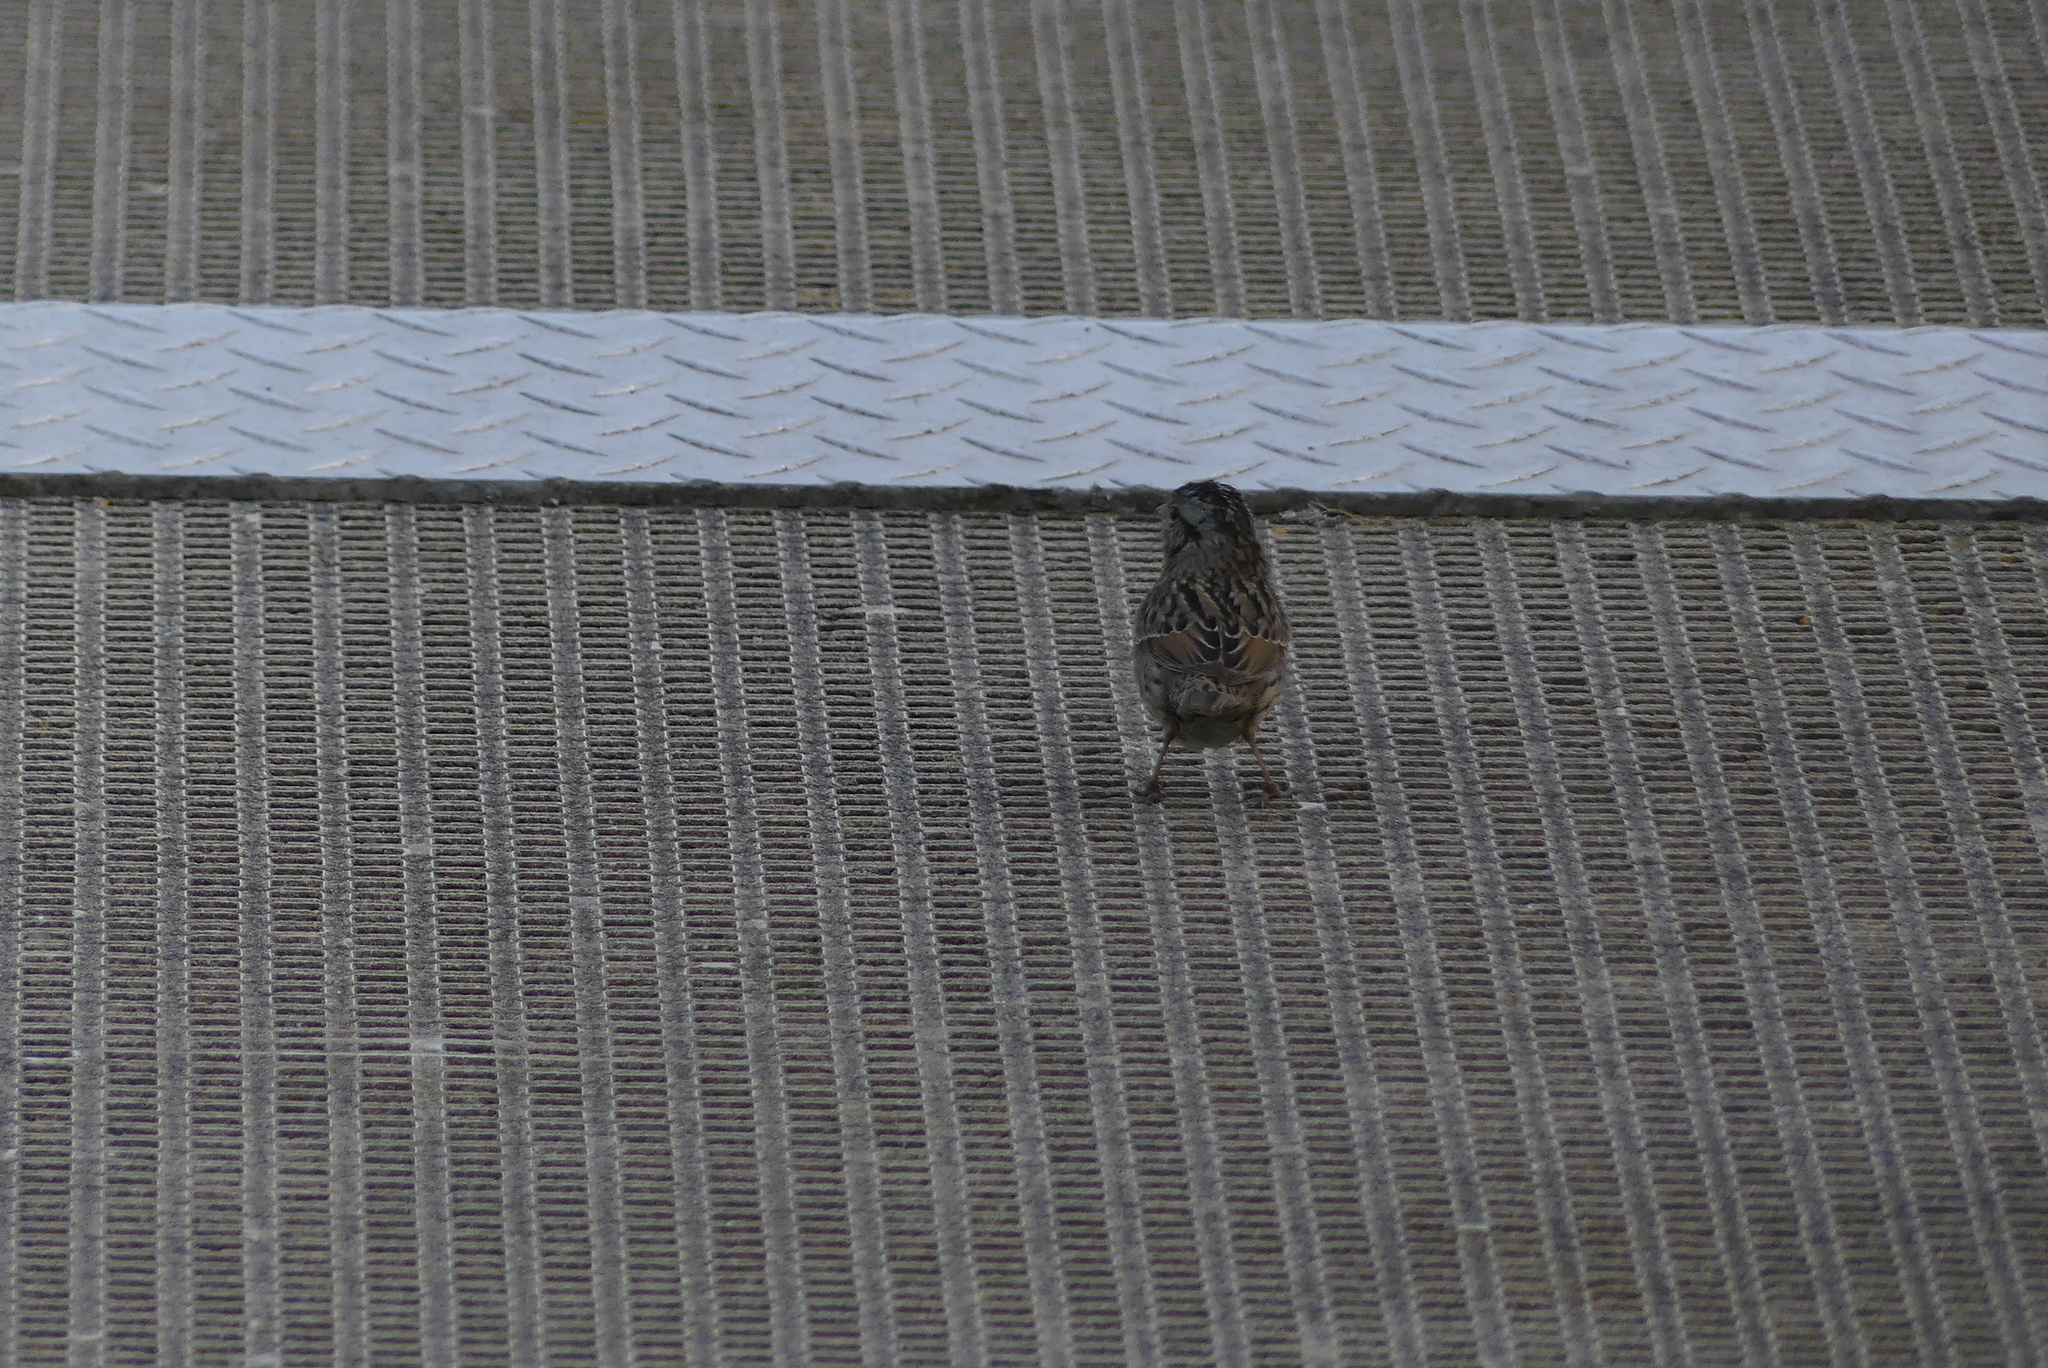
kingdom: Animalia
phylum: Chordata
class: Aves
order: Passeriformes
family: Passerellidae
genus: Melospiza
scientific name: Melospiza lincolnii
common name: Lincoln's sparrow
